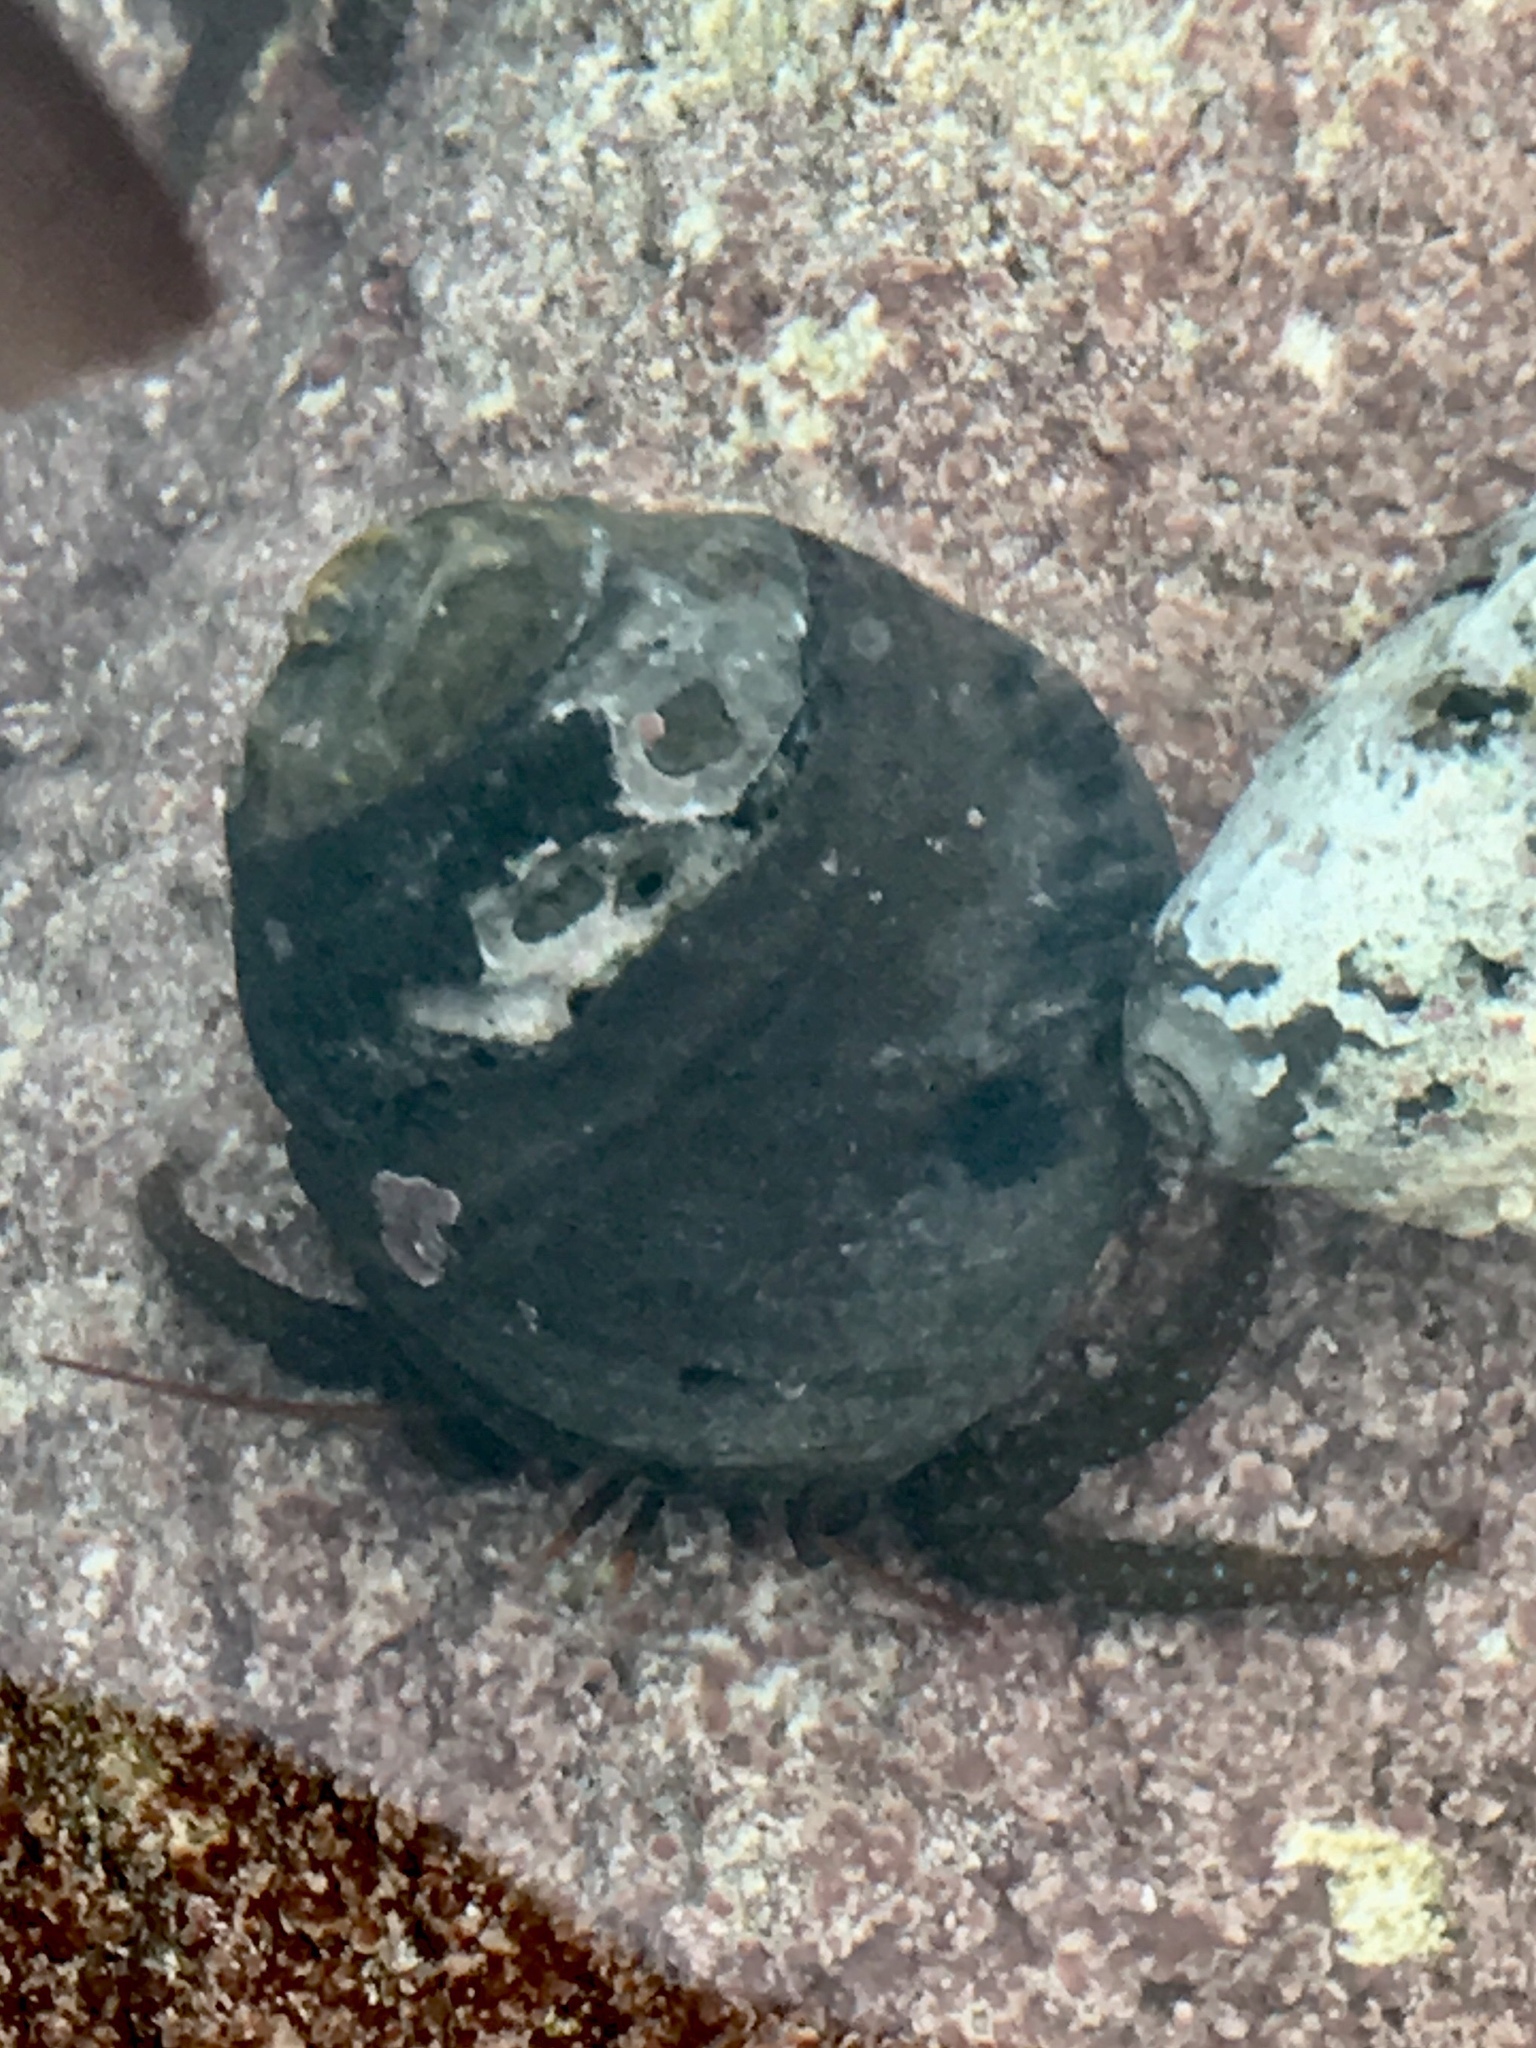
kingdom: Animalia
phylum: Arthropoda
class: Malacostraca
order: Decapoda
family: Paguridae
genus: Pagurus
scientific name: Pagurus granosimanus
